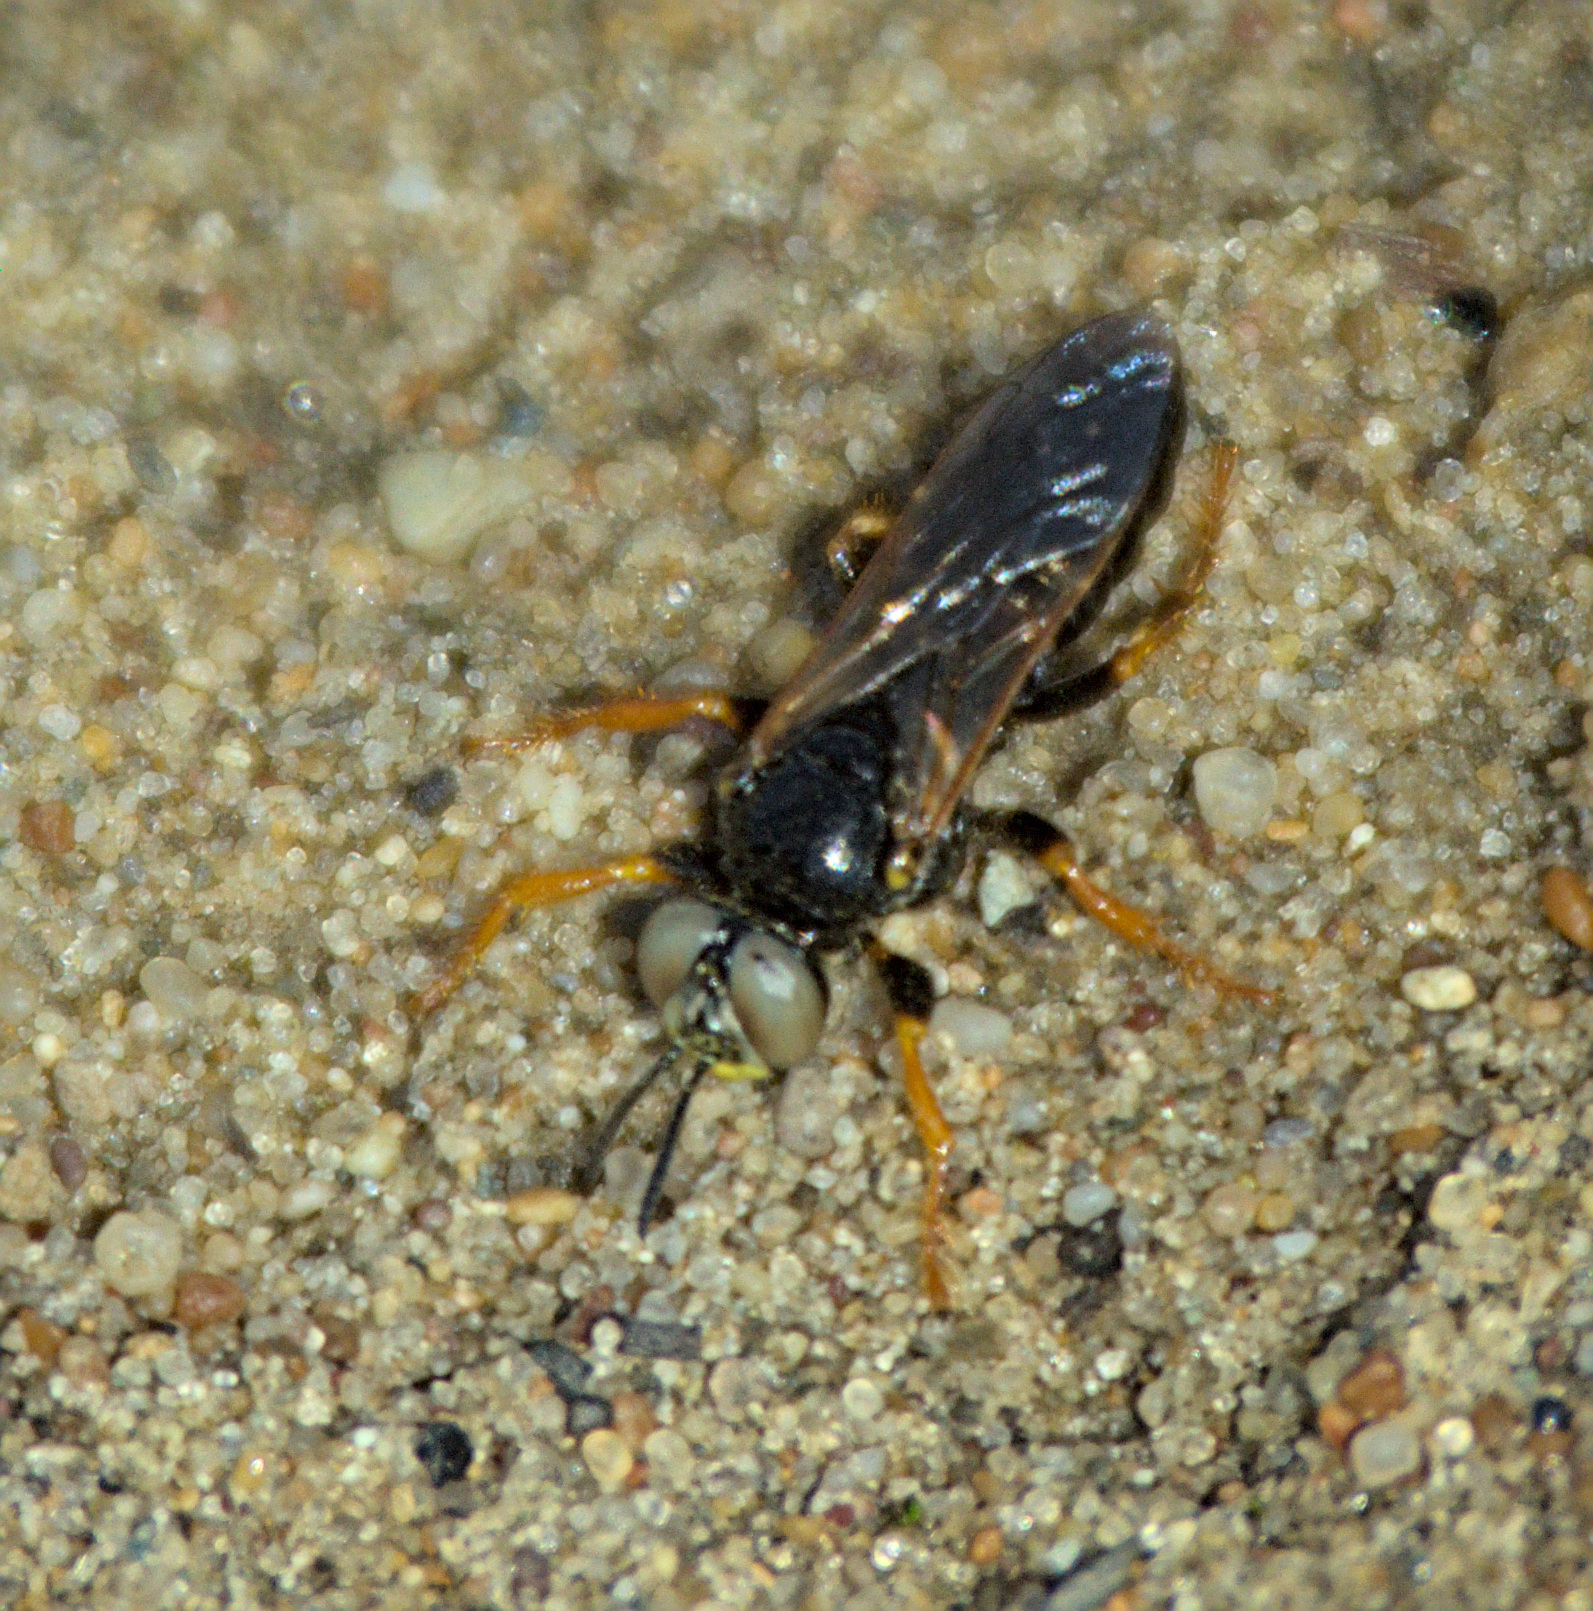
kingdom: Animalia
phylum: Arthropoda
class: Insecta
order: Hymenoptera
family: Crabronidae
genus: Palarus
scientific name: Palarus variegatus
